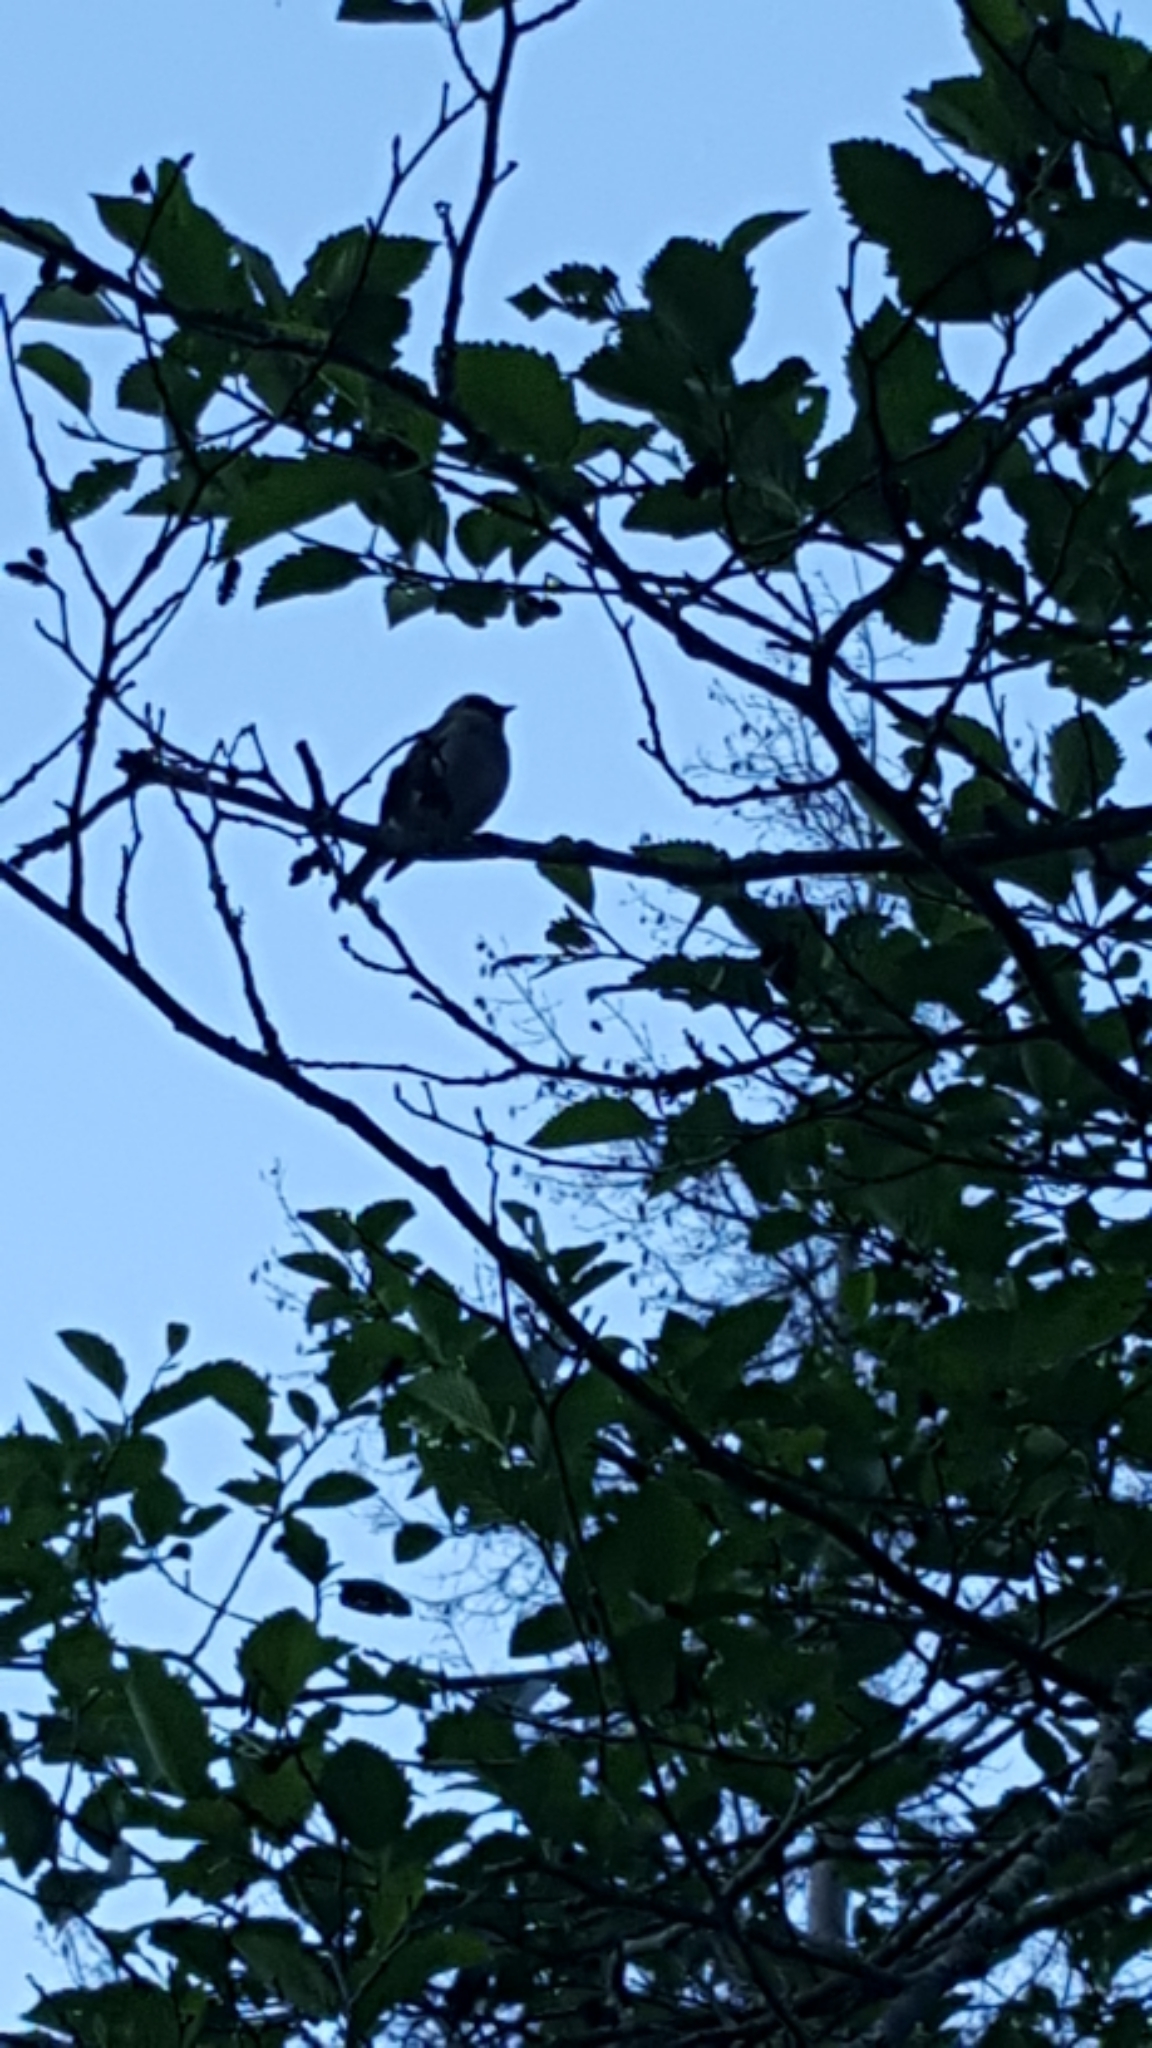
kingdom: Animalia
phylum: Chordata
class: Aves
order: Passeriformes
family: Bombycillidae
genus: Bombycilla
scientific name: Bombycilla cedrorum
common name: Cedar waxwing
